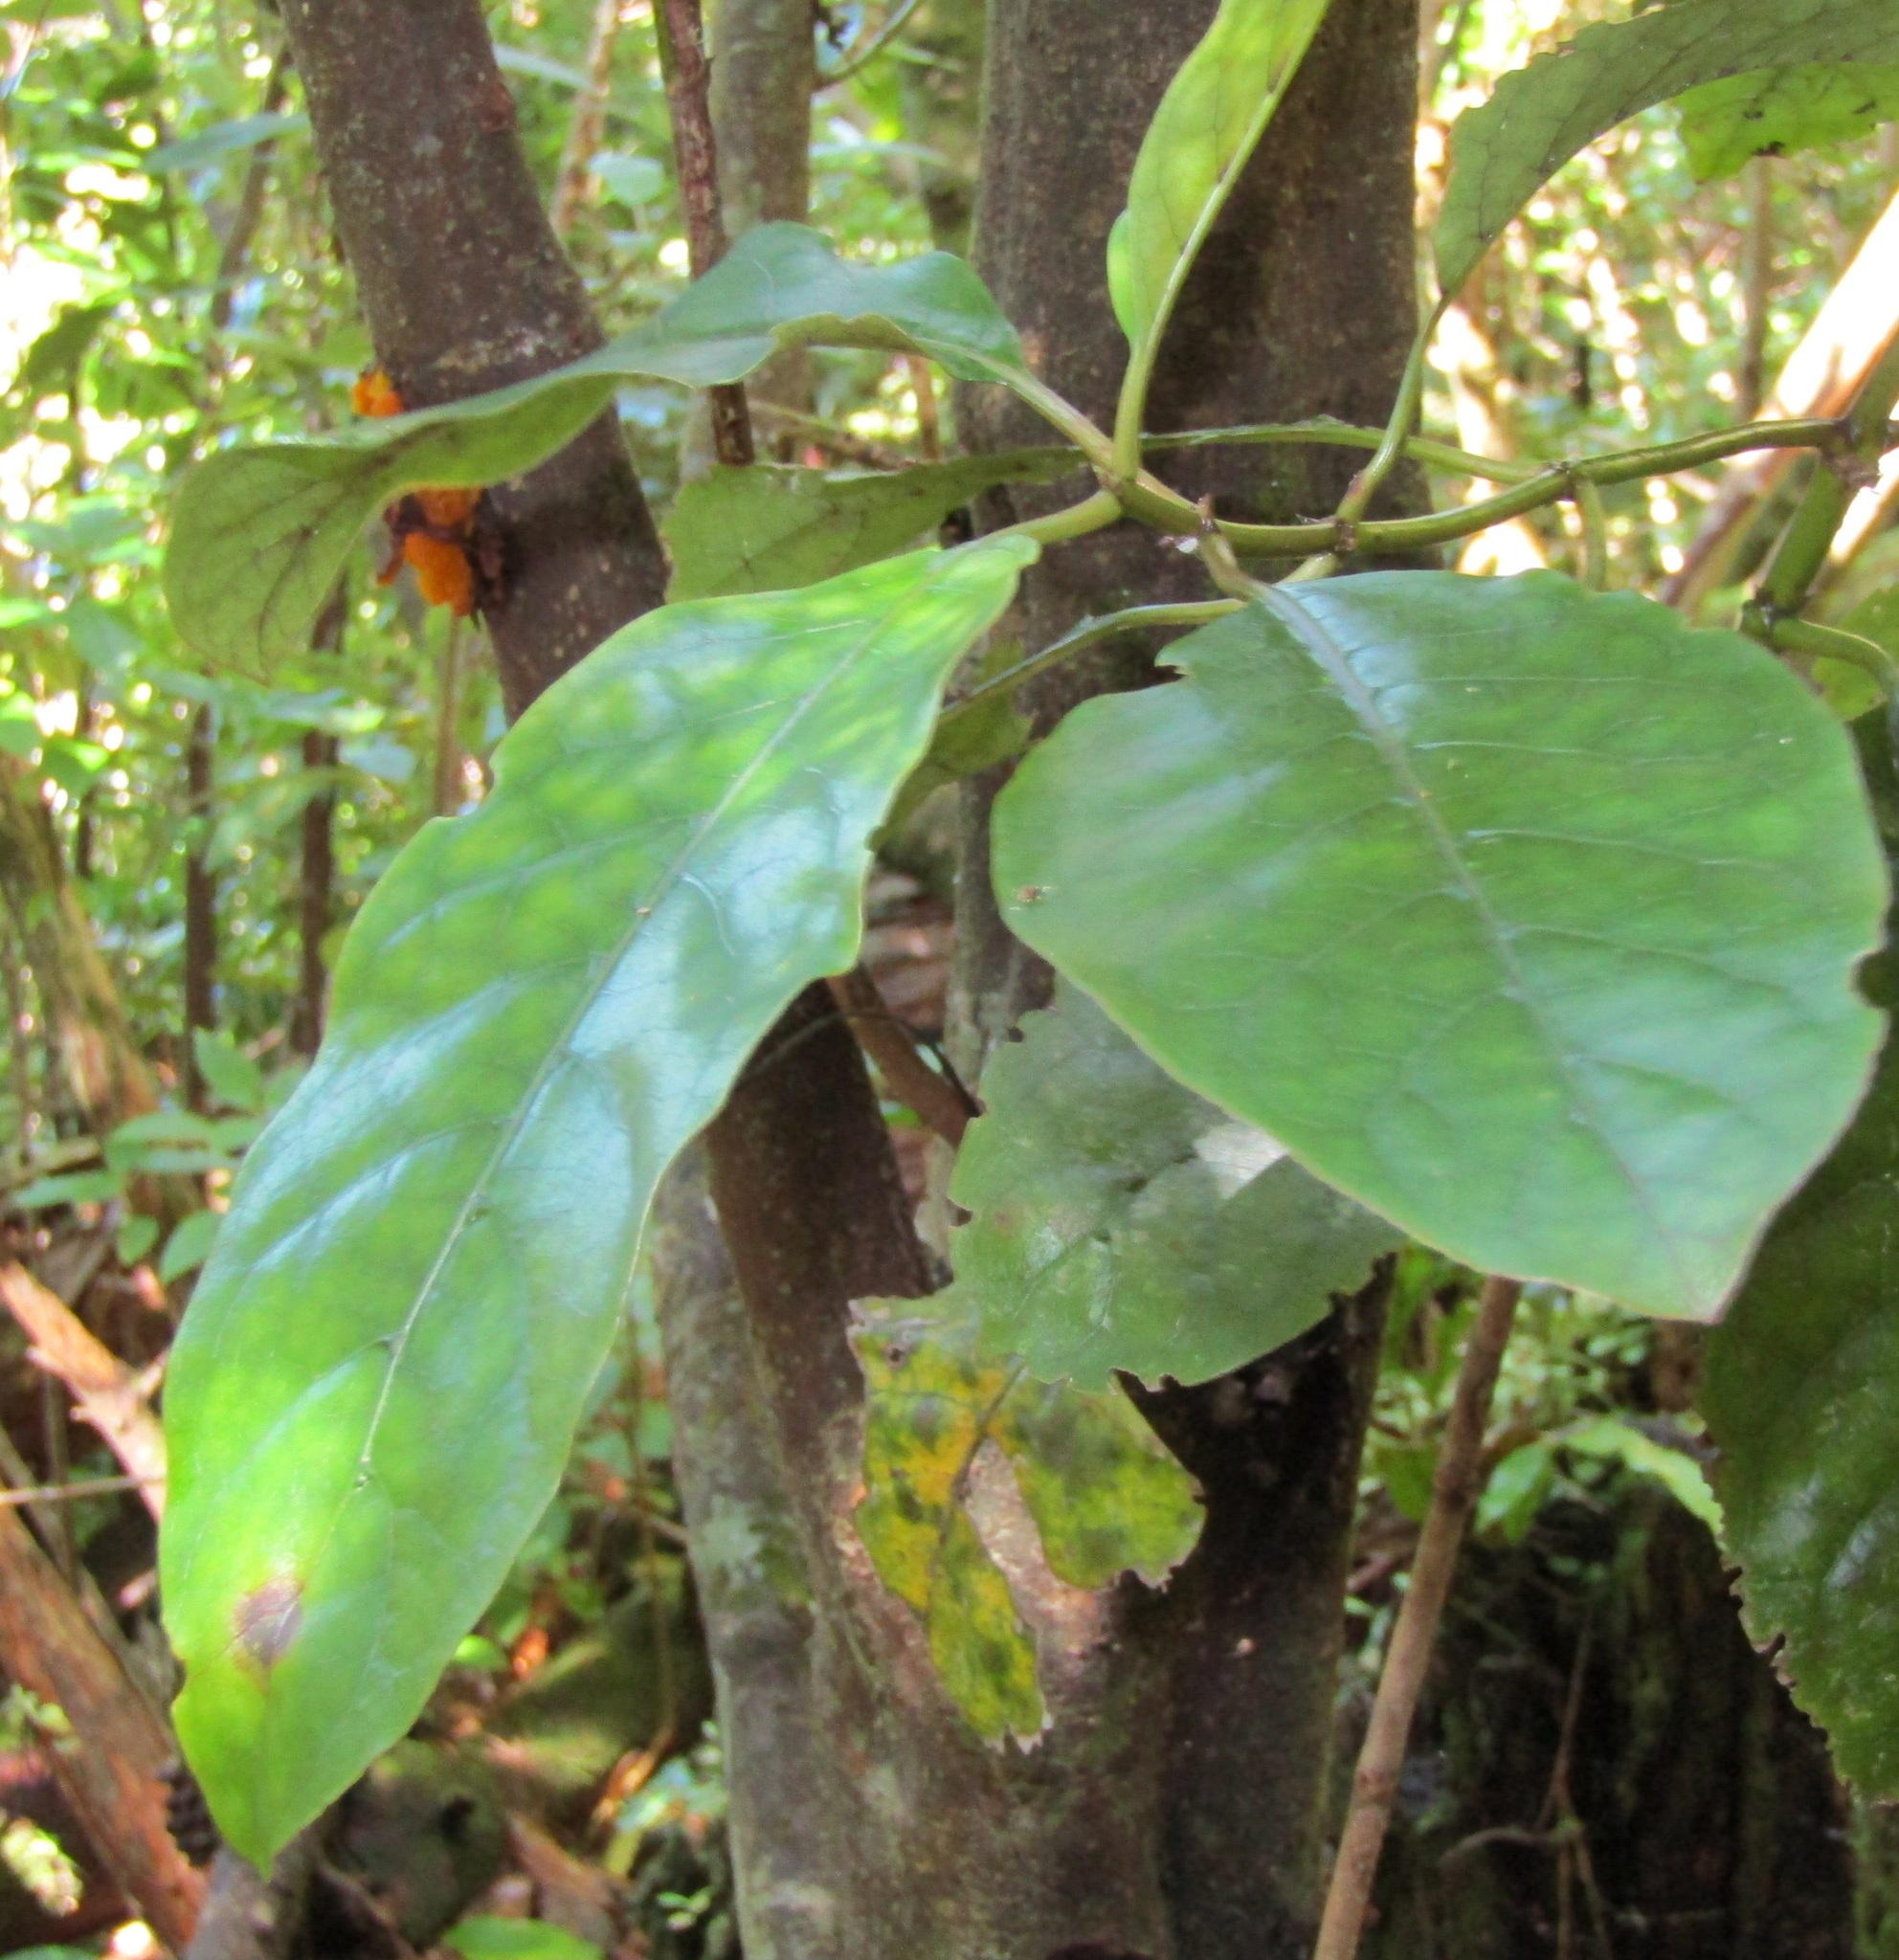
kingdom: Plantae
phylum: Tracheophyta
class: Magnoliopsida
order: Gentianales
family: Rubiaceae
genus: Coprosma
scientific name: Coprosma autumnalis
